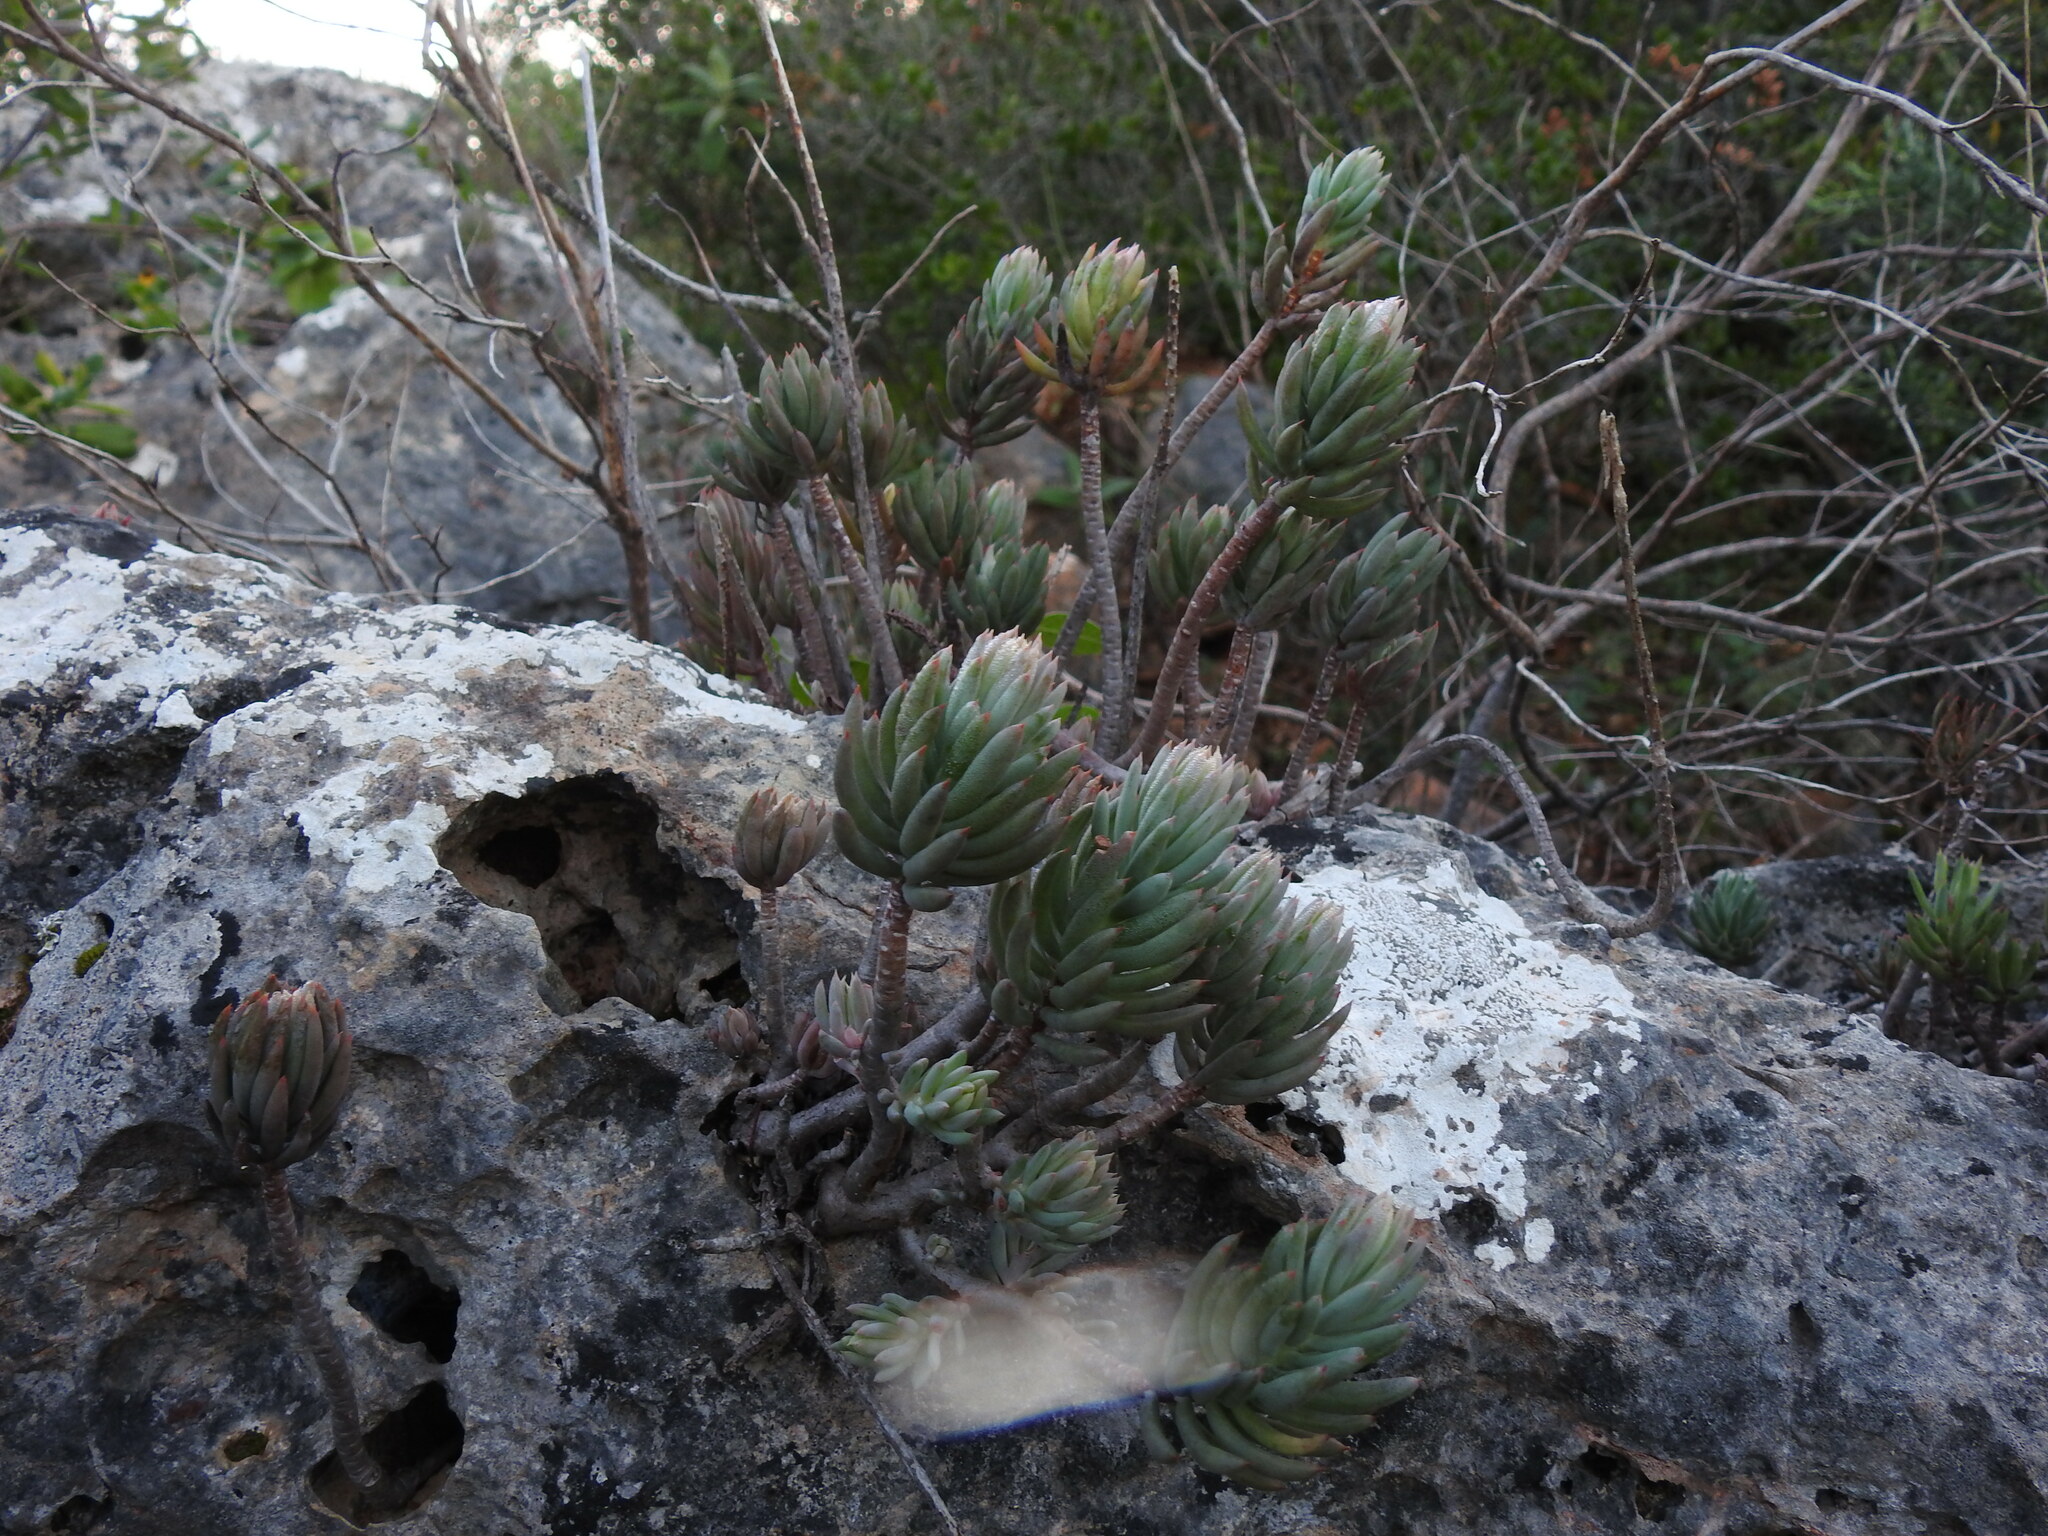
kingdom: Plantae
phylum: Tracheophyta
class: Magnoliopsida
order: Saxifragales
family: Crassulaceae
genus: Petrosedum
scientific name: Petrosedum sediforme
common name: Pale stonecrop
